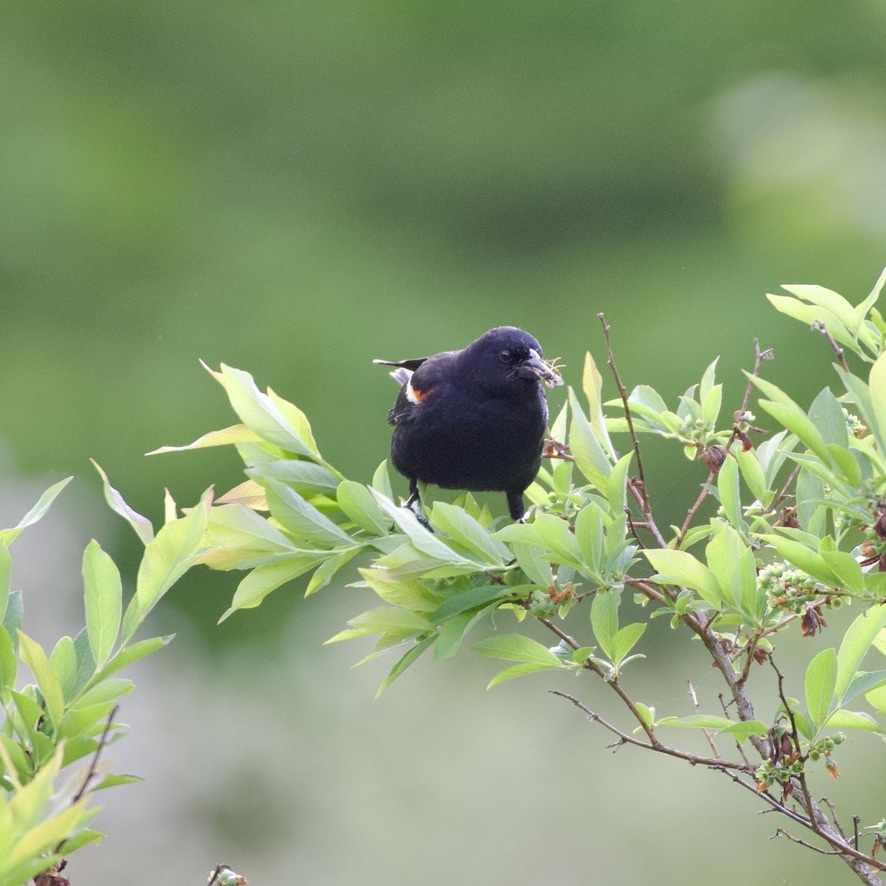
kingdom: Animalia
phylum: Chordata
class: Aves
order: Passeriformes
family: Icteridae
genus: Agelaius
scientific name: Agelaius phoeniceus
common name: Red-winged blackbird
